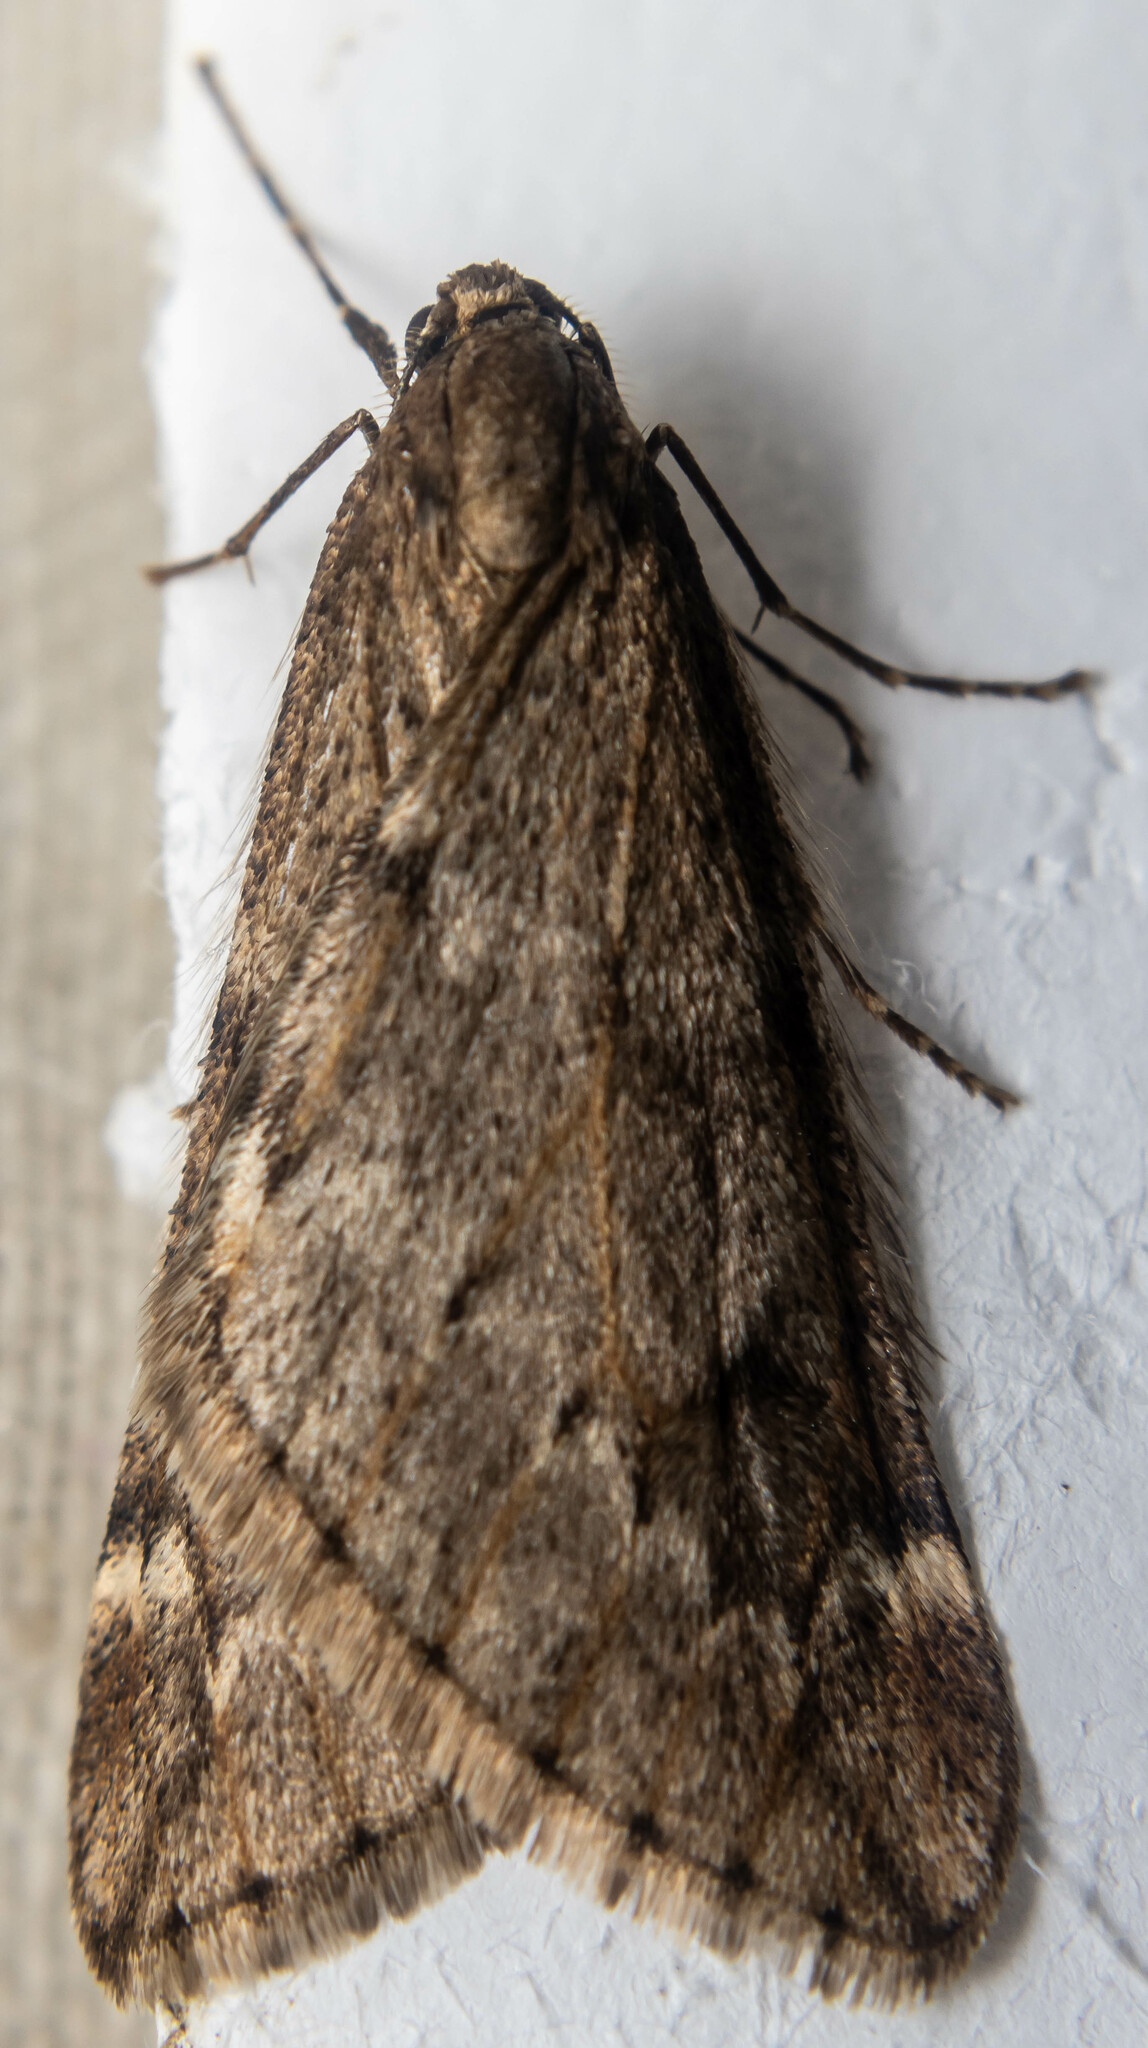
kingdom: Animalia
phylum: Arthropoda
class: Insecta
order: Lepidoptera
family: Geometridae
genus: Alsophila
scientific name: Alsophila aescularia
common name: March moth
